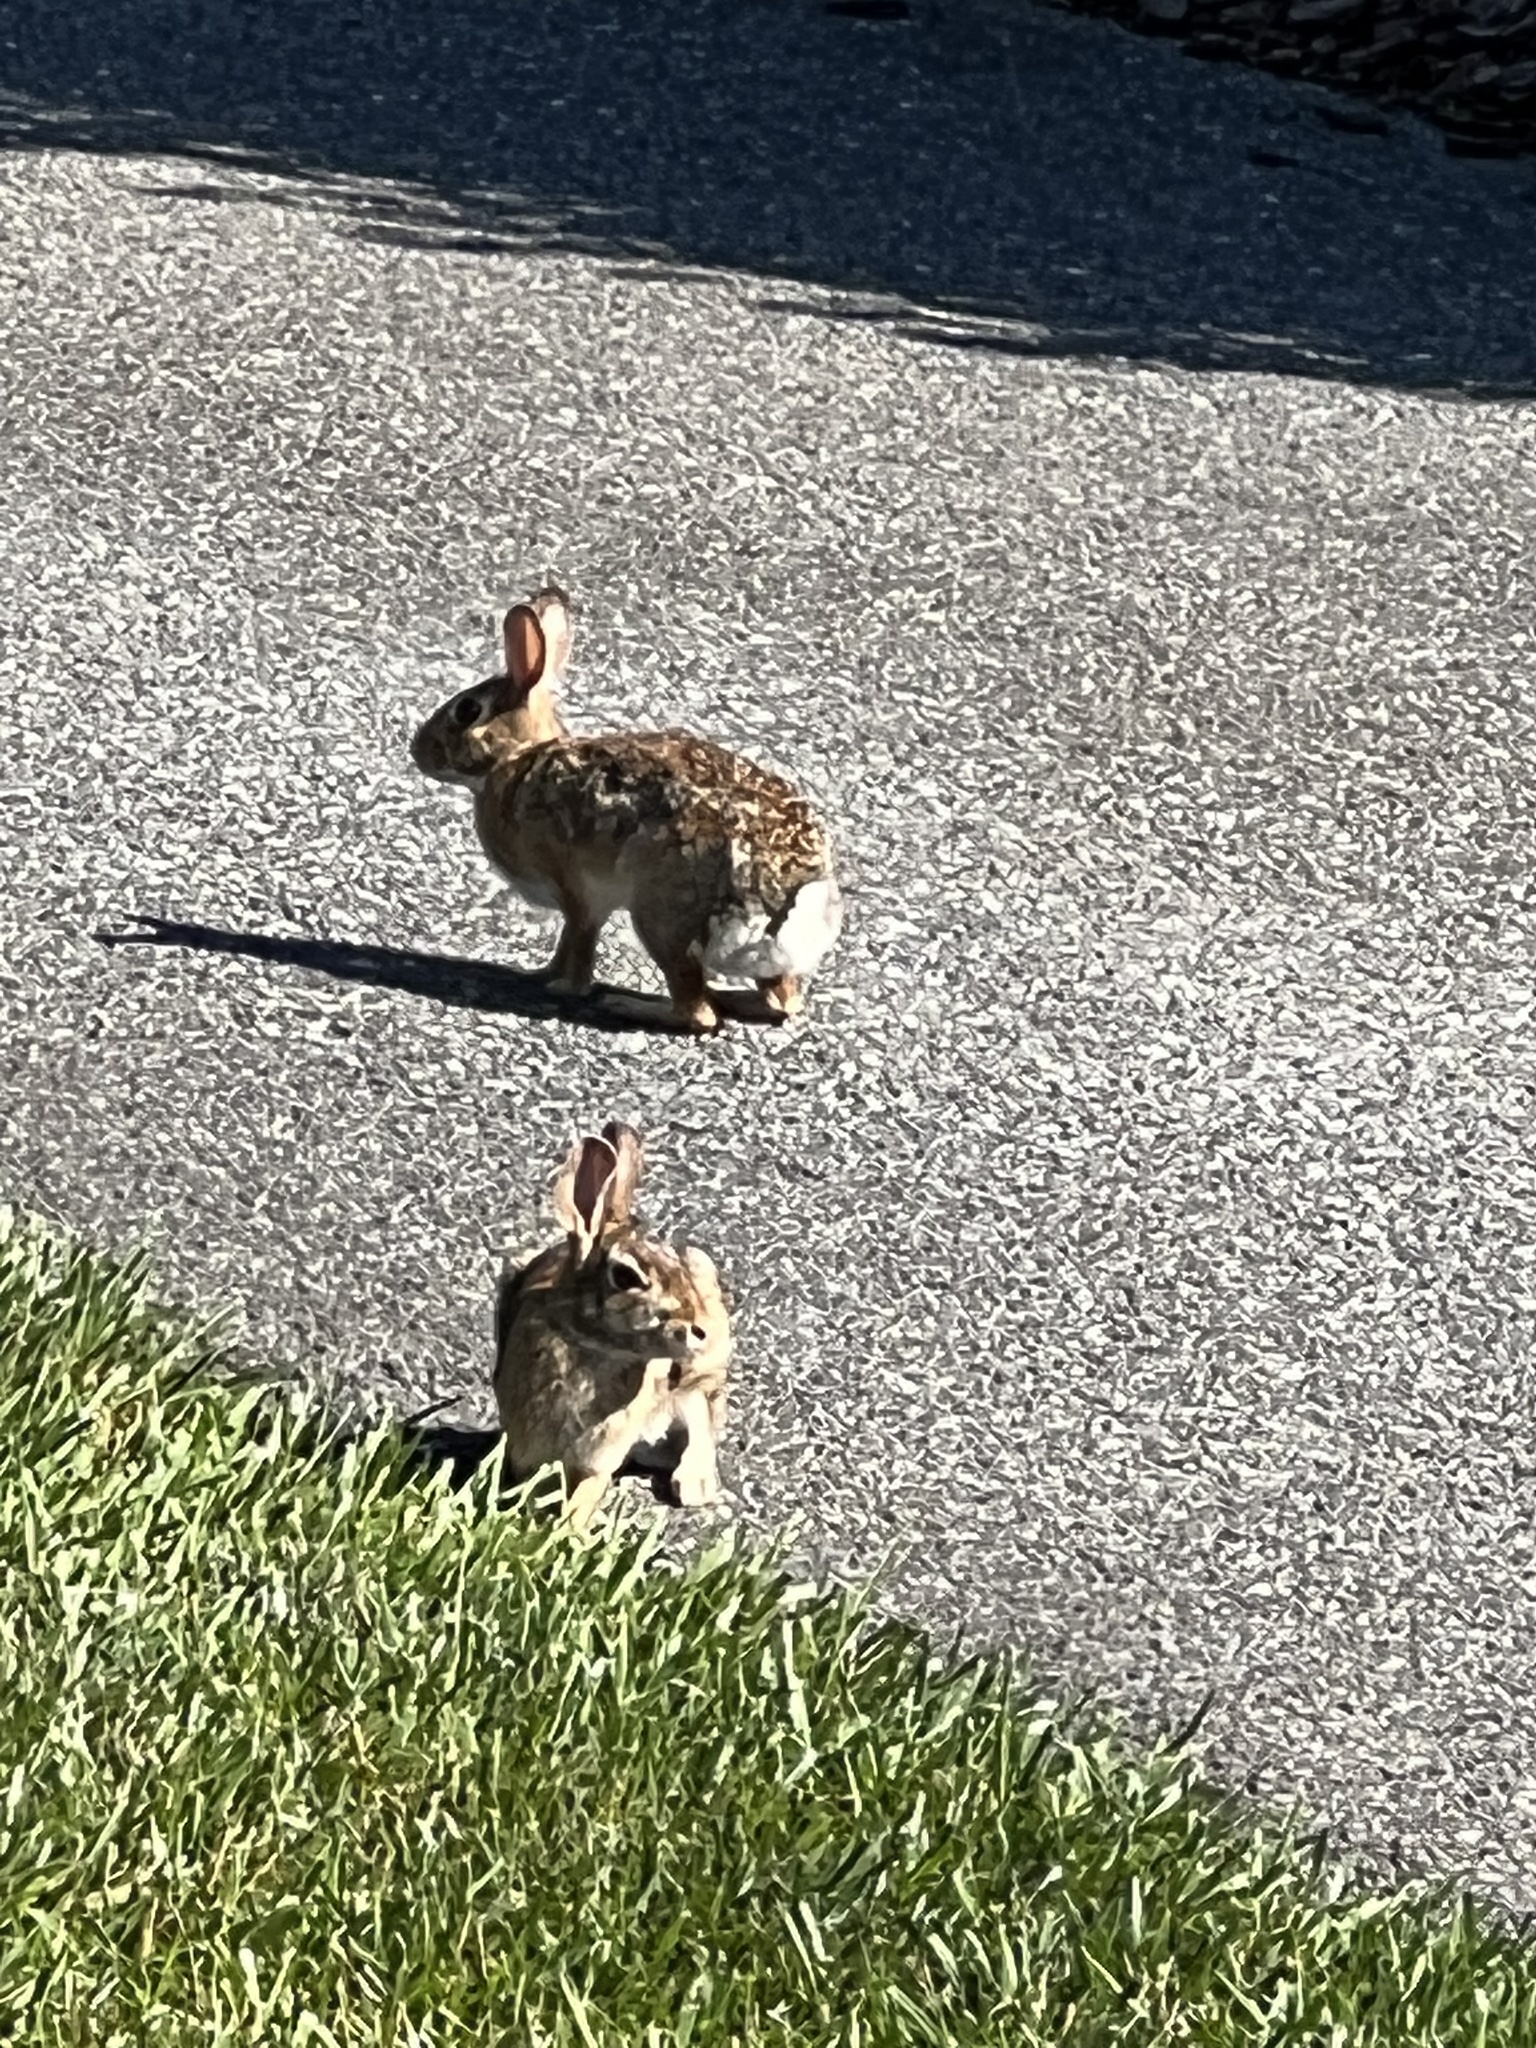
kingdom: Animalia
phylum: Chordata
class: Mammalia
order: Lagomorpha
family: Leporidae
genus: Sylvilagus
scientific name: Sylvilagus floridanus
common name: Eastern cottontail
